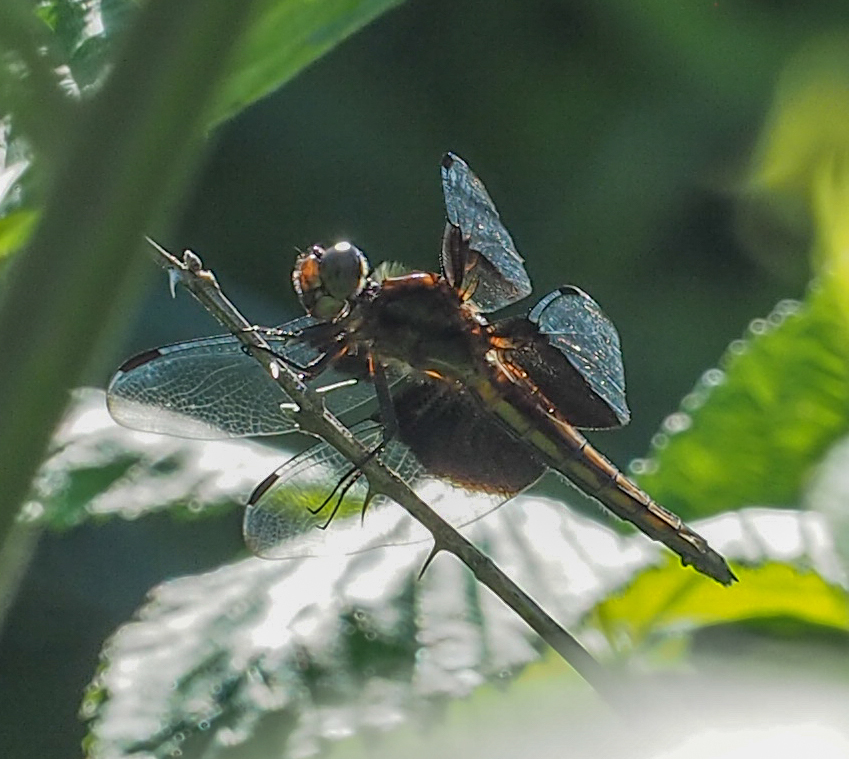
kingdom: Animalia
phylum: Arthropoda
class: Insecta
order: Odonata
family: Libellulidae
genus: Libellula
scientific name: Libellula luctuosa
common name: Widow skimmer
